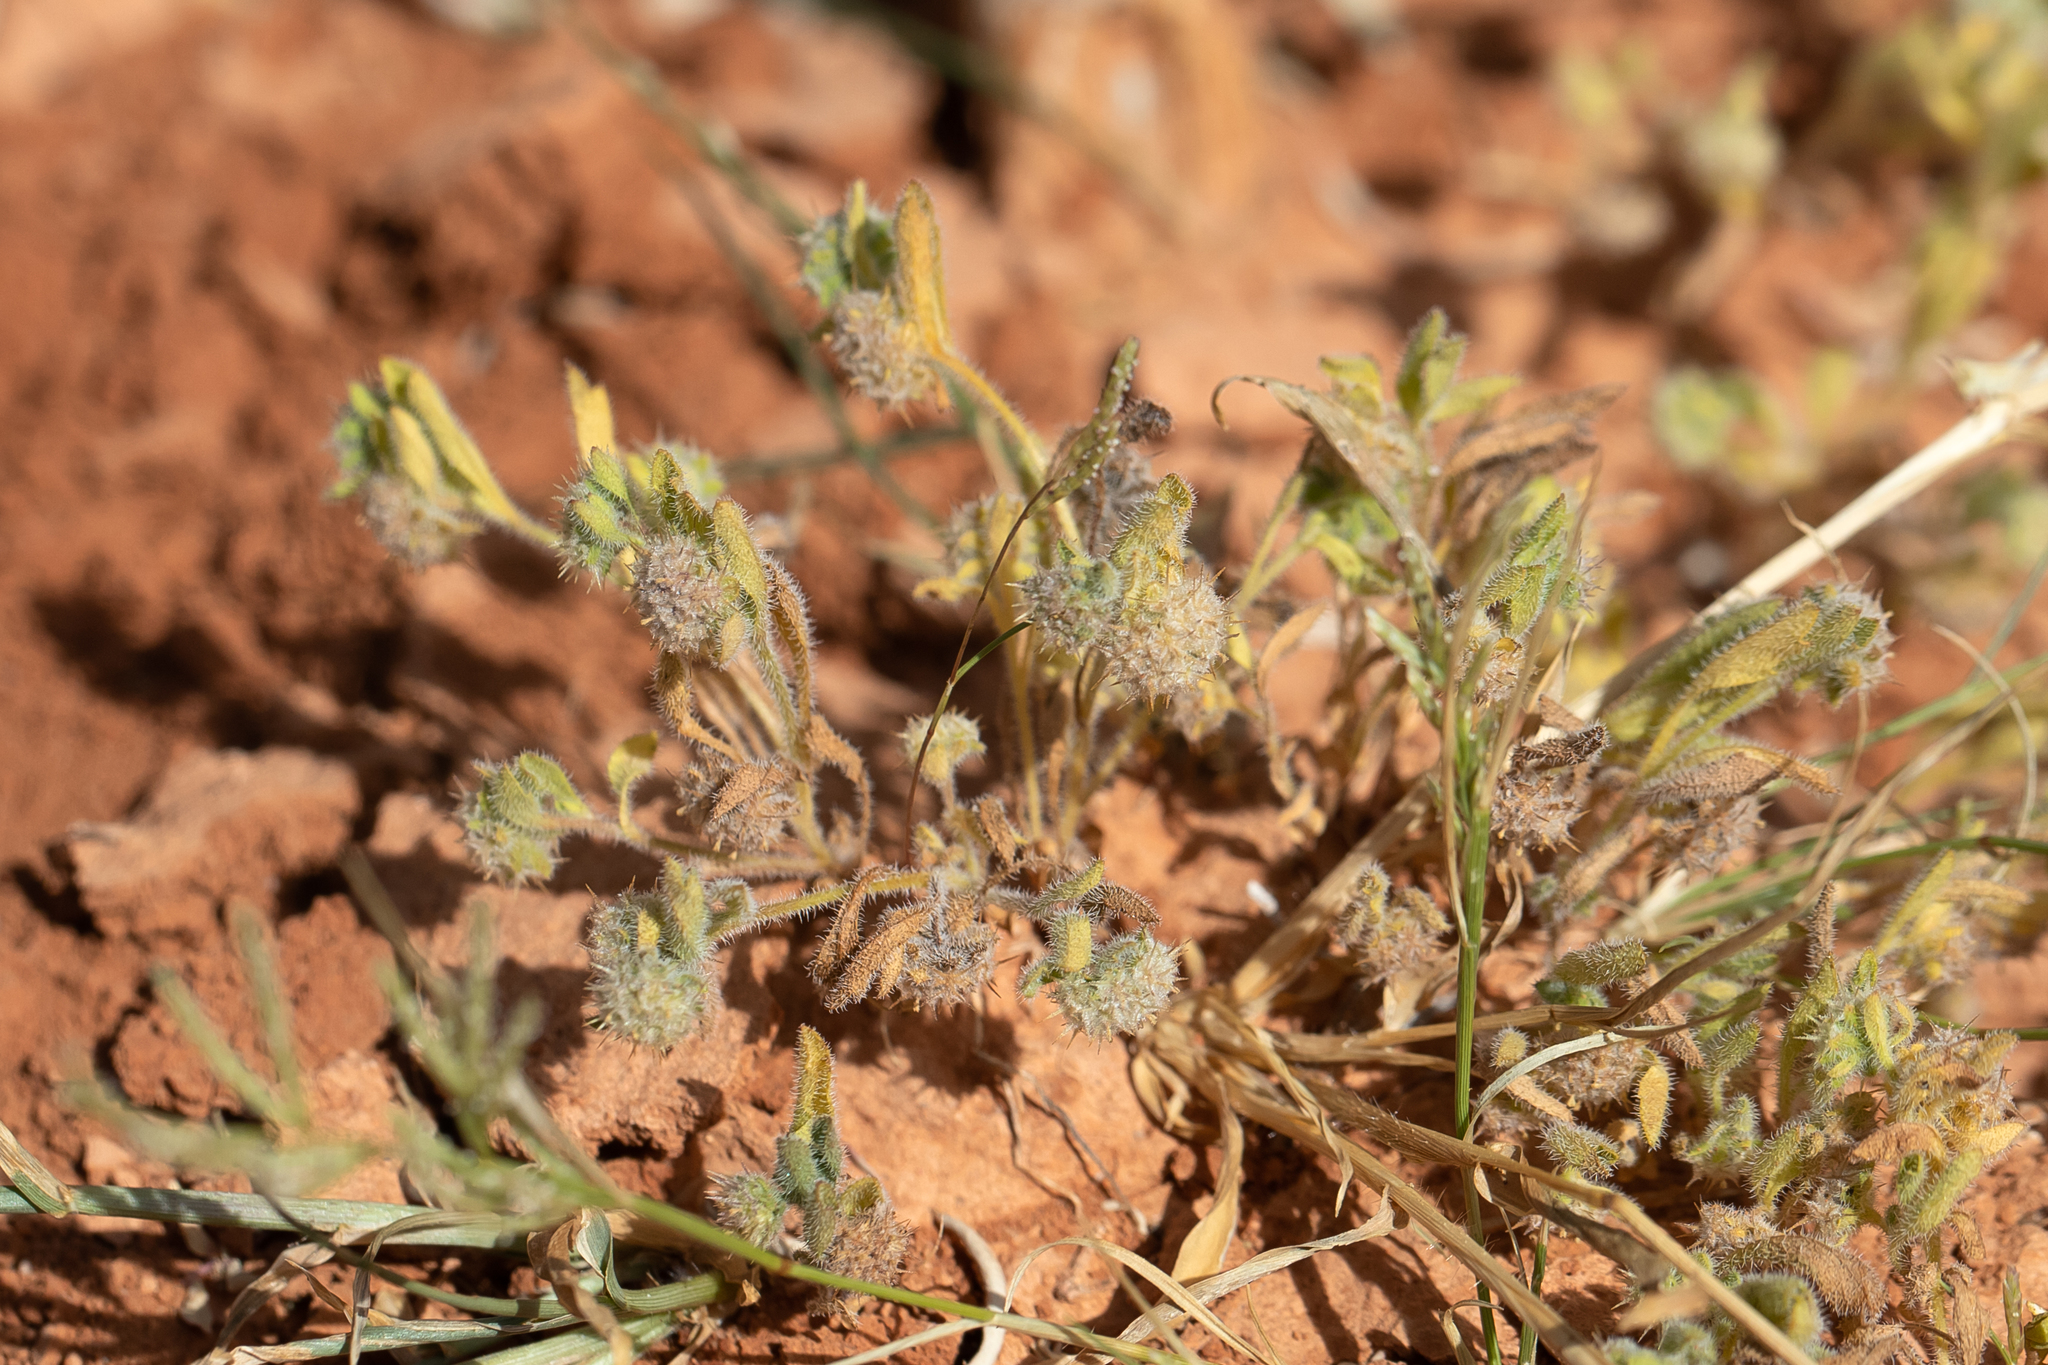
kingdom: Plantae
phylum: Tracheophyta
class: Magnoliopsida
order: Asterales
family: Asteraceae
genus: Calotis
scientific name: Calotis hispidula
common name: Bogan-flea
